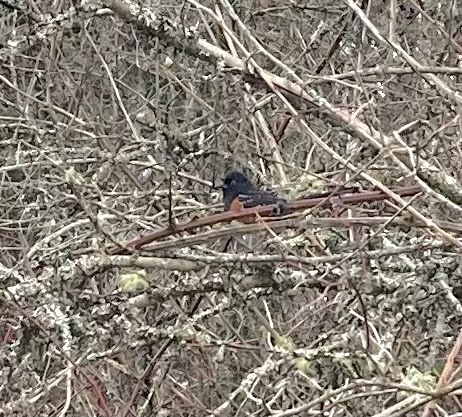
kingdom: Animalia
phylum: Chordata
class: Aves
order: Passeriformes
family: Passerellidae
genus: Pipilo
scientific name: Pipilo maculatus
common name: Spotted towhee
